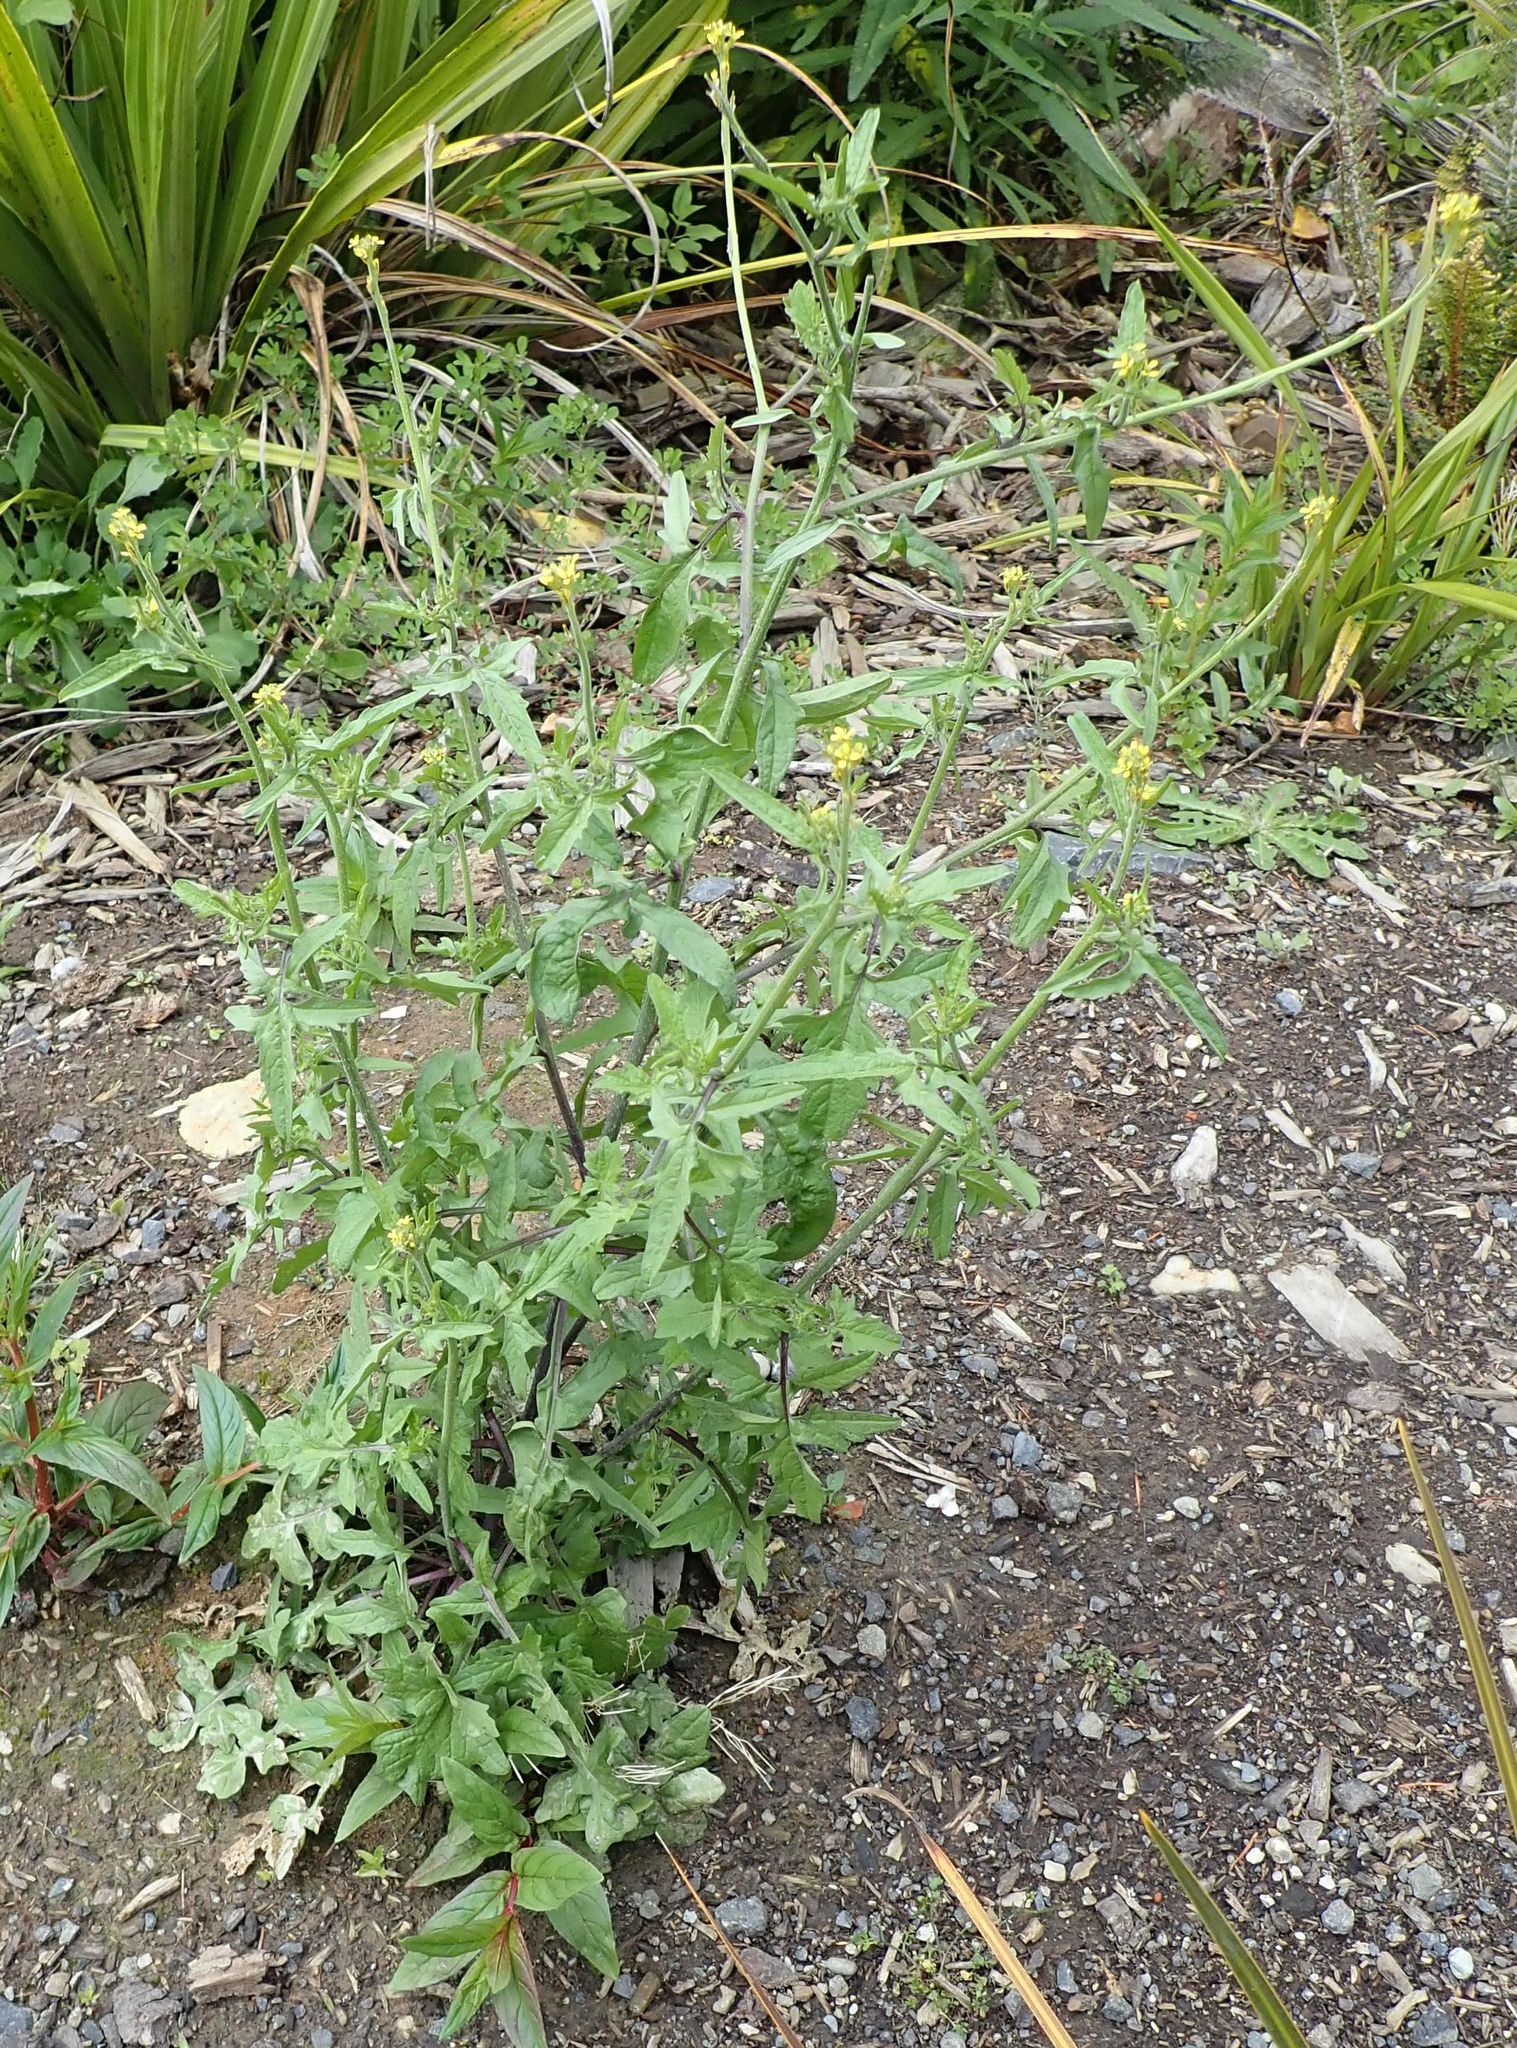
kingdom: Plantae
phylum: Tracheophyta
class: Magnoliopsida
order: Brassicales
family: Brassicaceae
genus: Sisymbrium
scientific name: Sisymbrium officinale
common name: Hedge mustard
